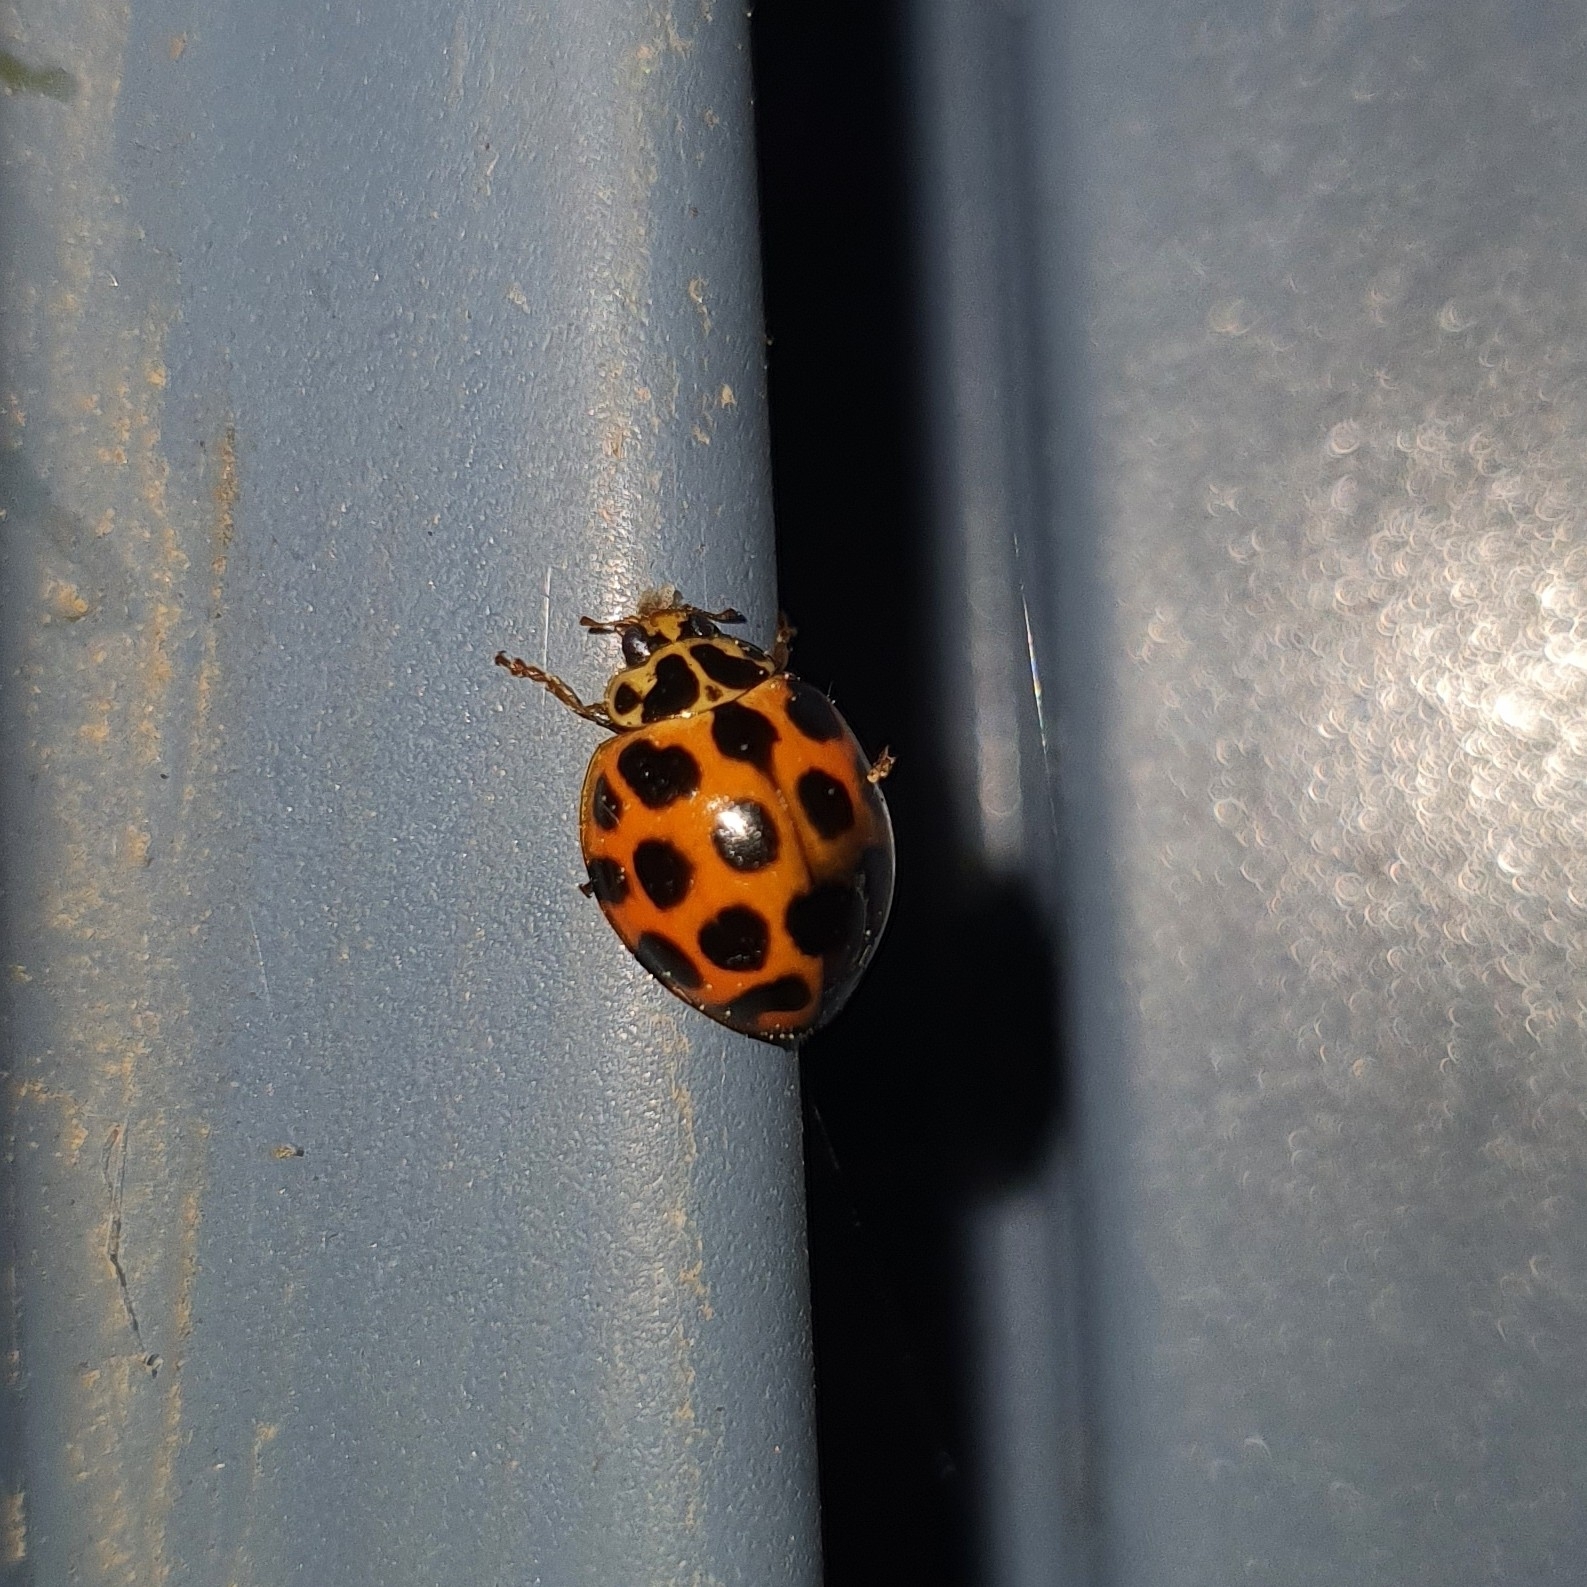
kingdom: Animalia
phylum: Arthropoda
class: Insecta
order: Coleoptera
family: Coccinellidae
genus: Harmonia
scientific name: Harmonia conformis
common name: Common spotted ladybird beetle
